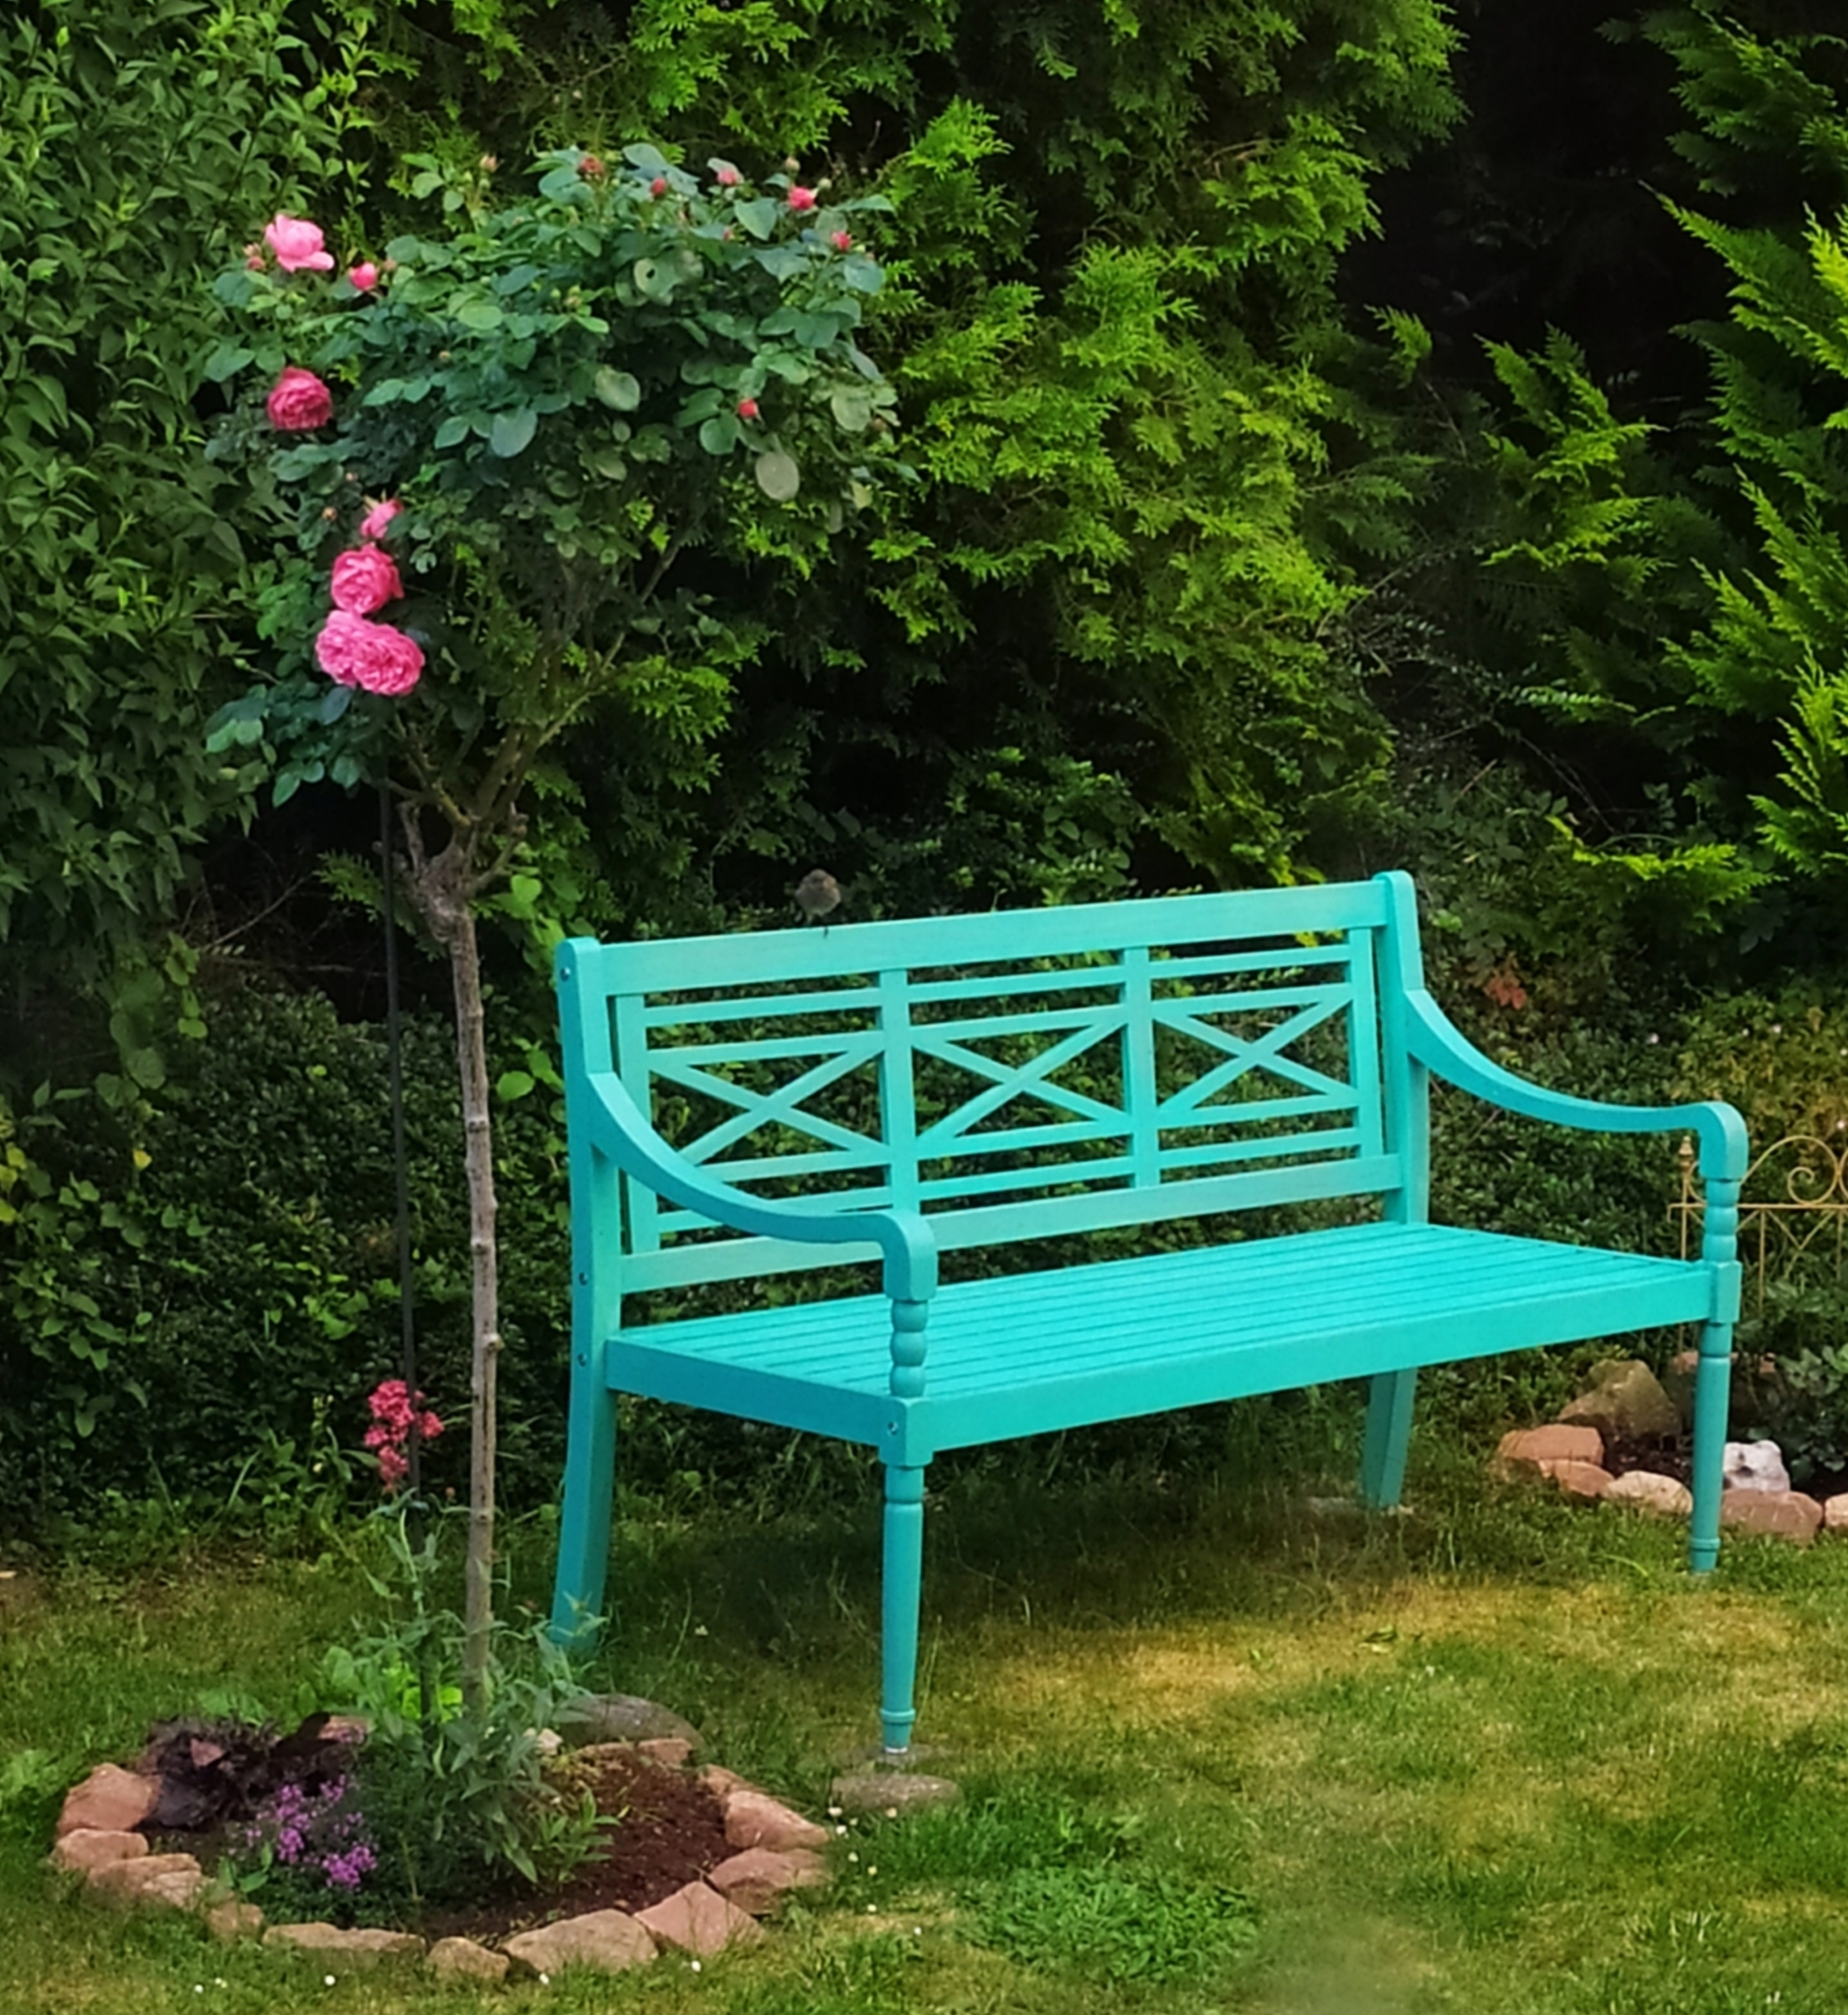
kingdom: Animalia
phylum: Chordata
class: Aves
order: Passeriformes
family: Muscicapidae
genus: Phoenicurus
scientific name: Phoenicurus ochruros
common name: Black redstart
